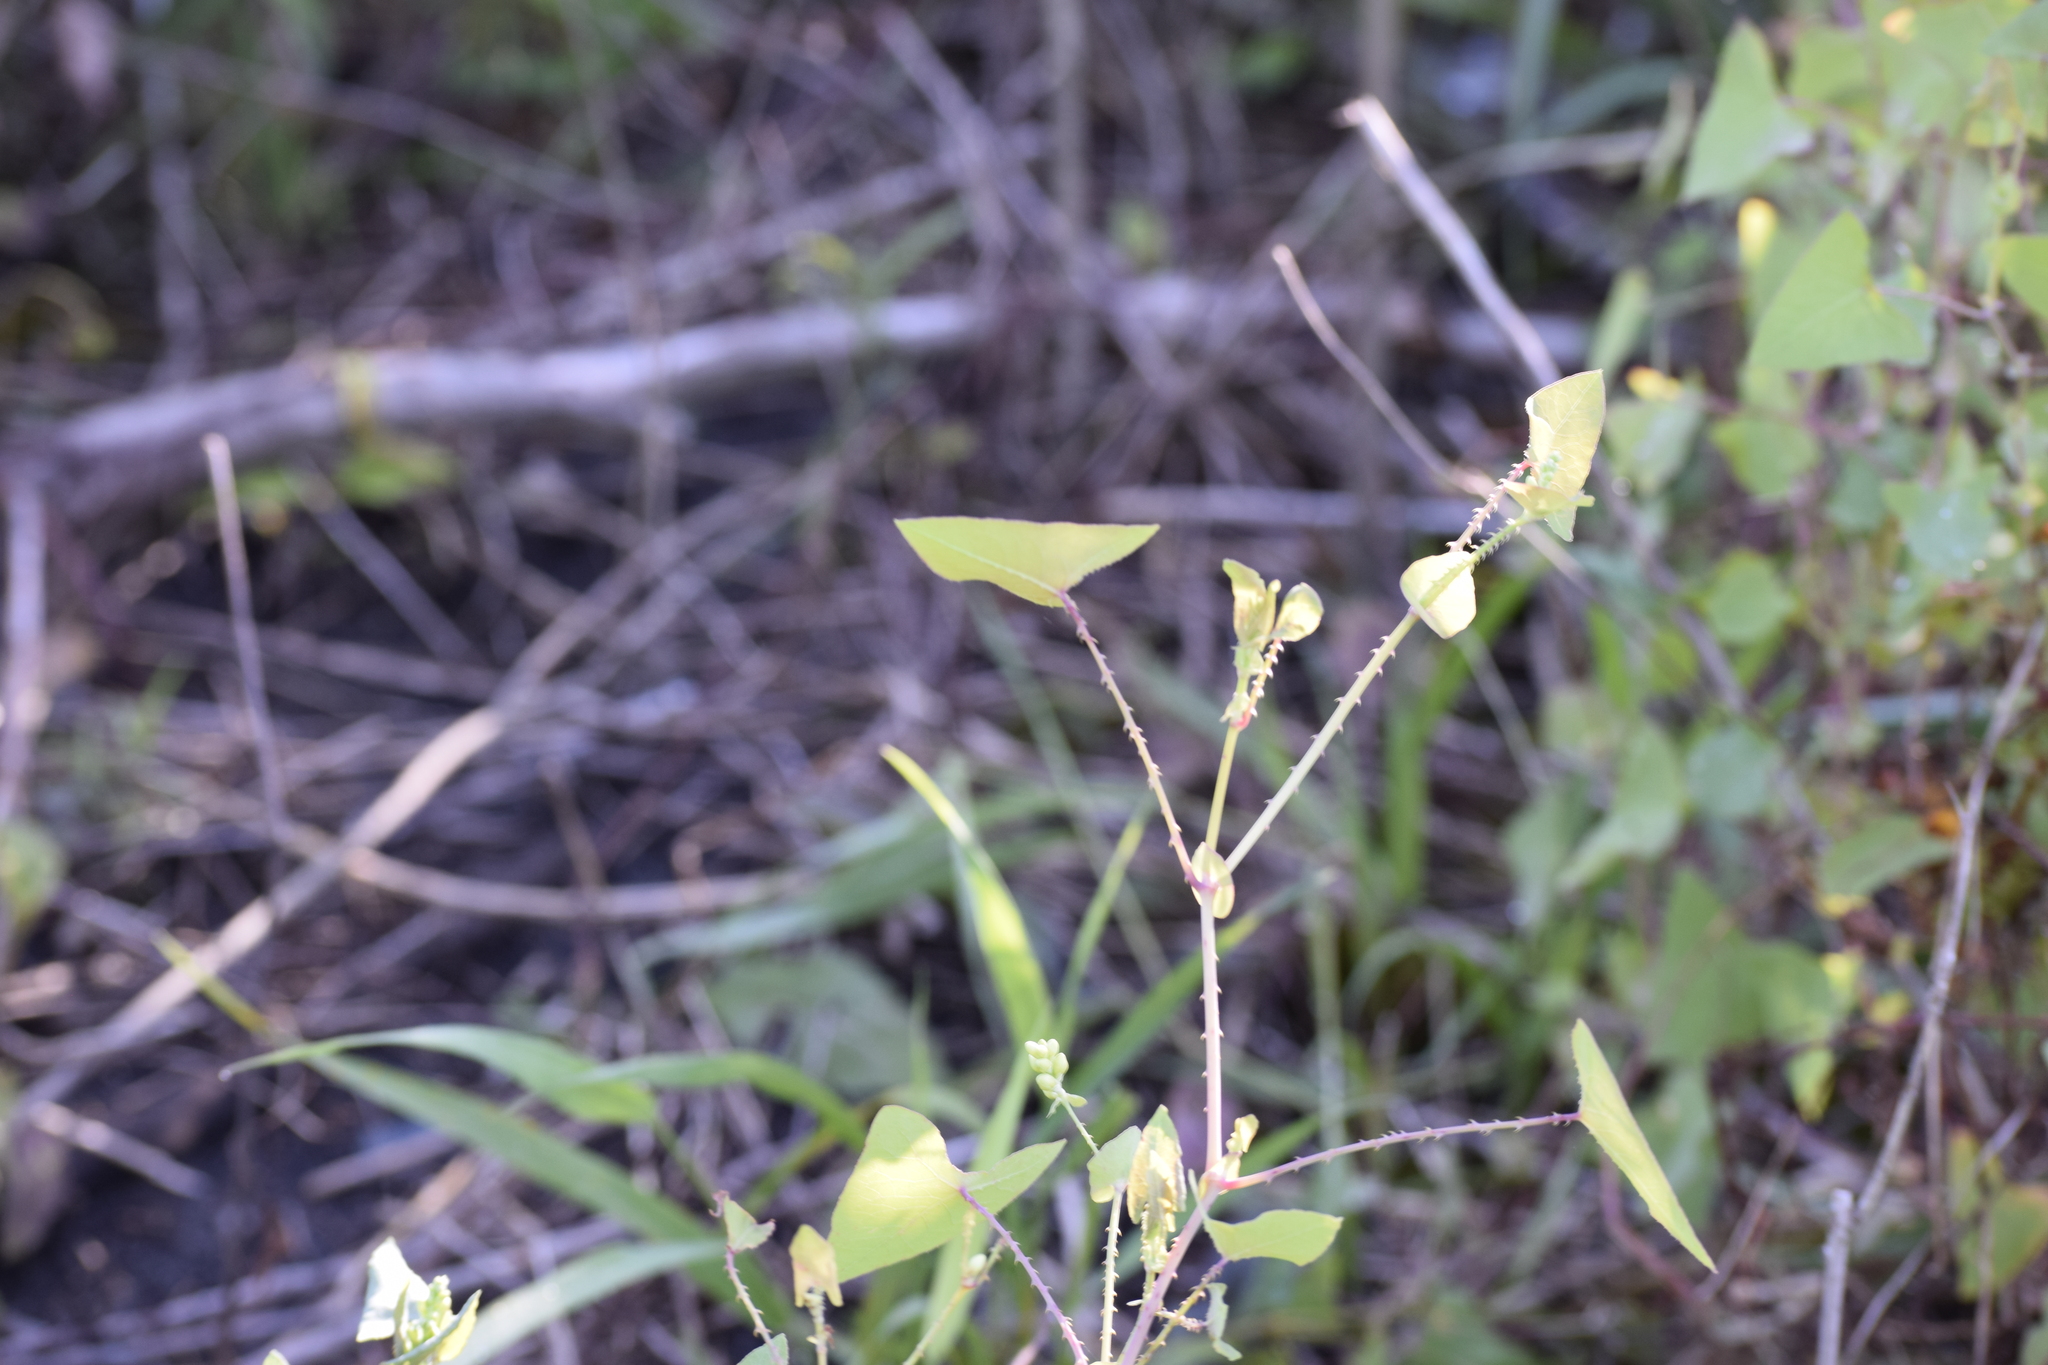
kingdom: Plantae
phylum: Tracheophyta
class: Magnoliopsida
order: Caryophyllales
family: Polygonaceae
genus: Persicaria
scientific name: Persicaria perfoliata
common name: Asiatic tearthumb
